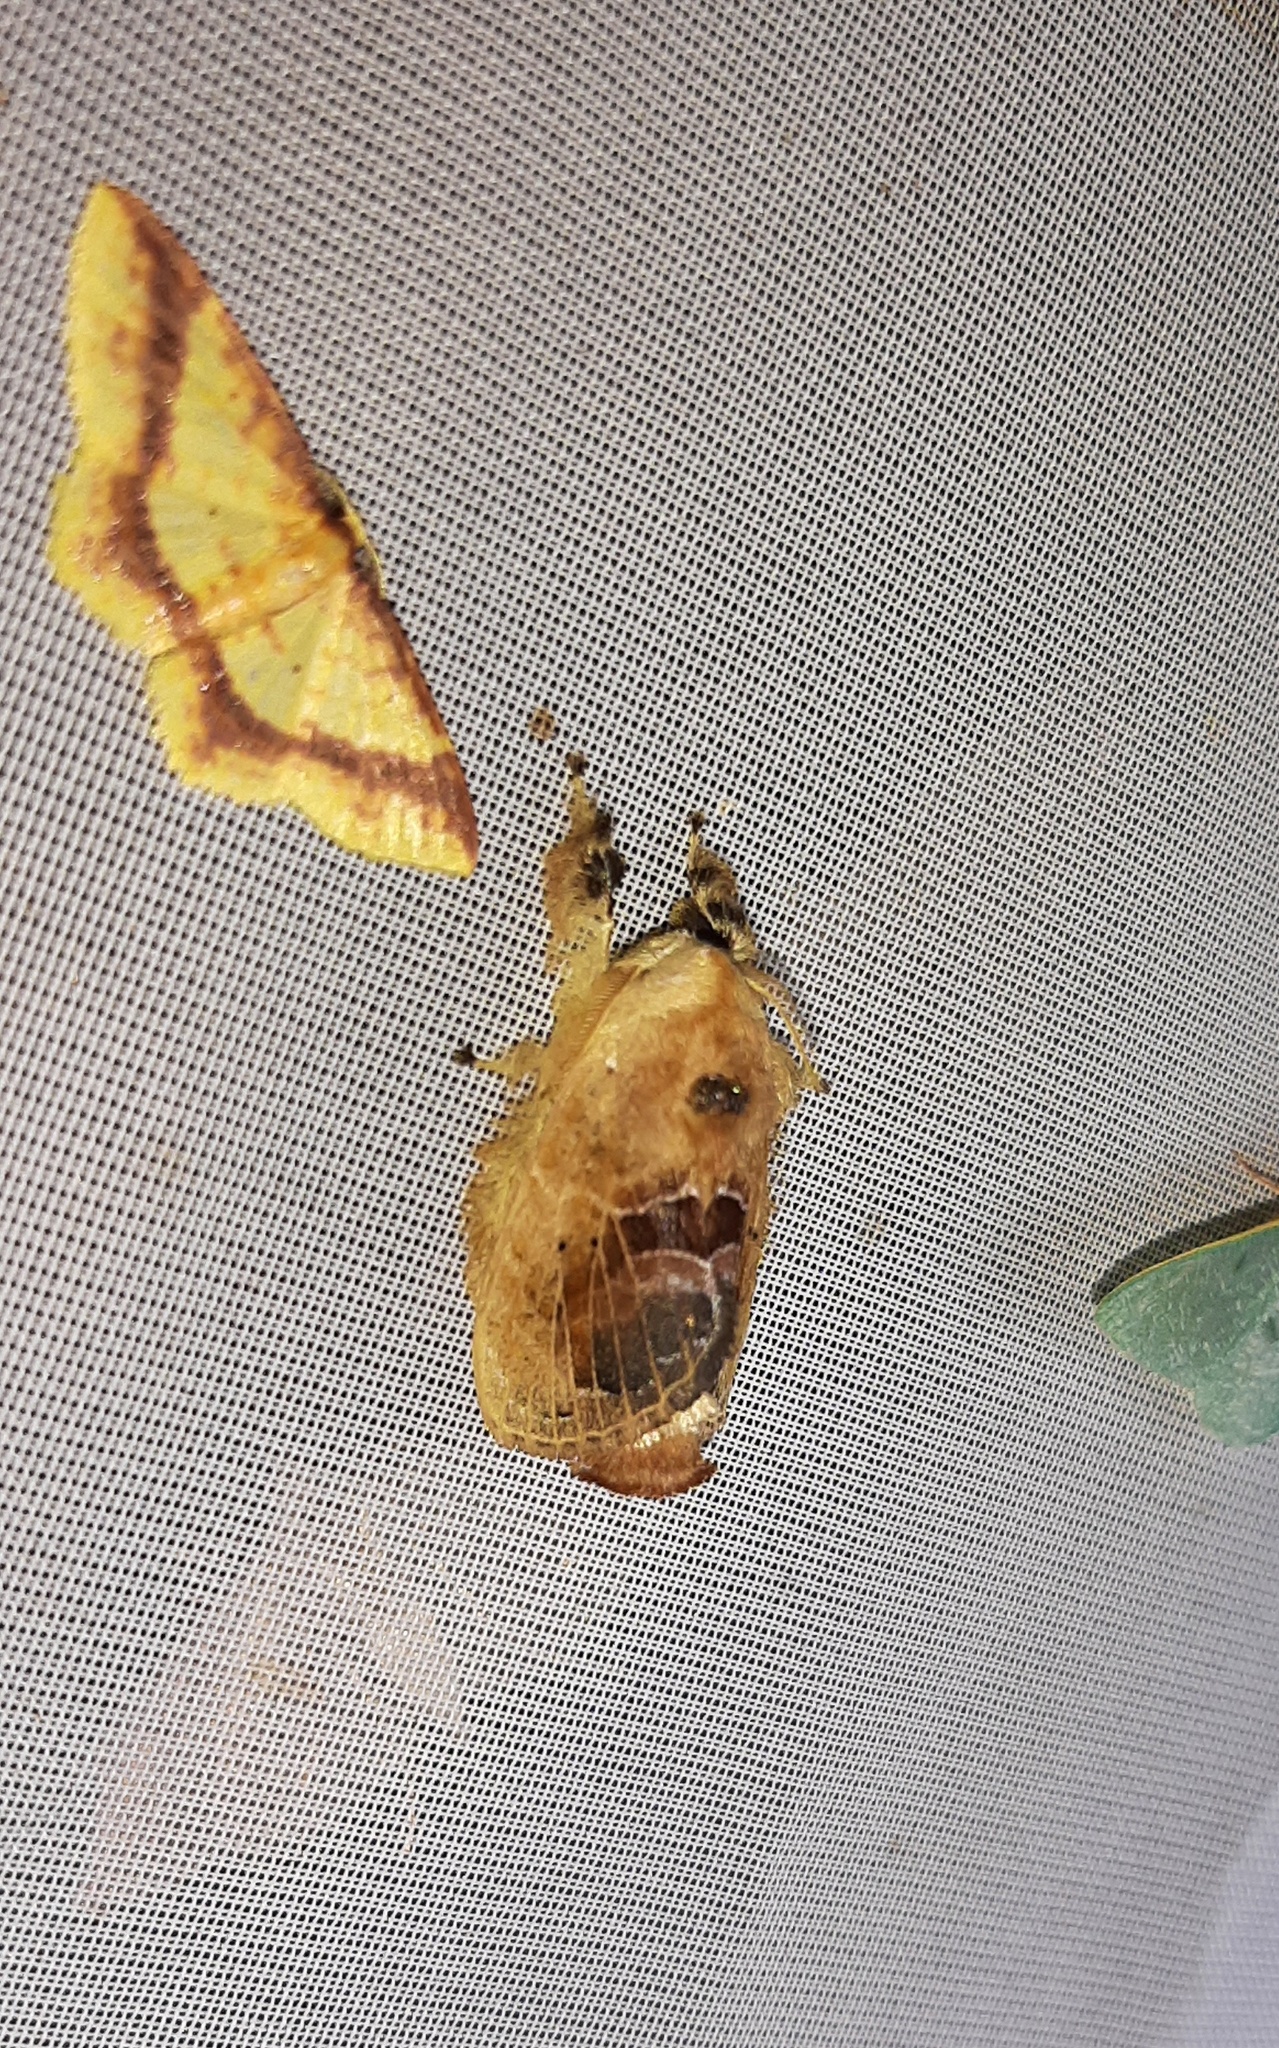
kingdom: Animalia
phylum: Arthropoda
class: Insecta
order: Lepidoptera
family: Lasiocampidae
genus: Euglyphis
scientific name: Euglyphis amisena
